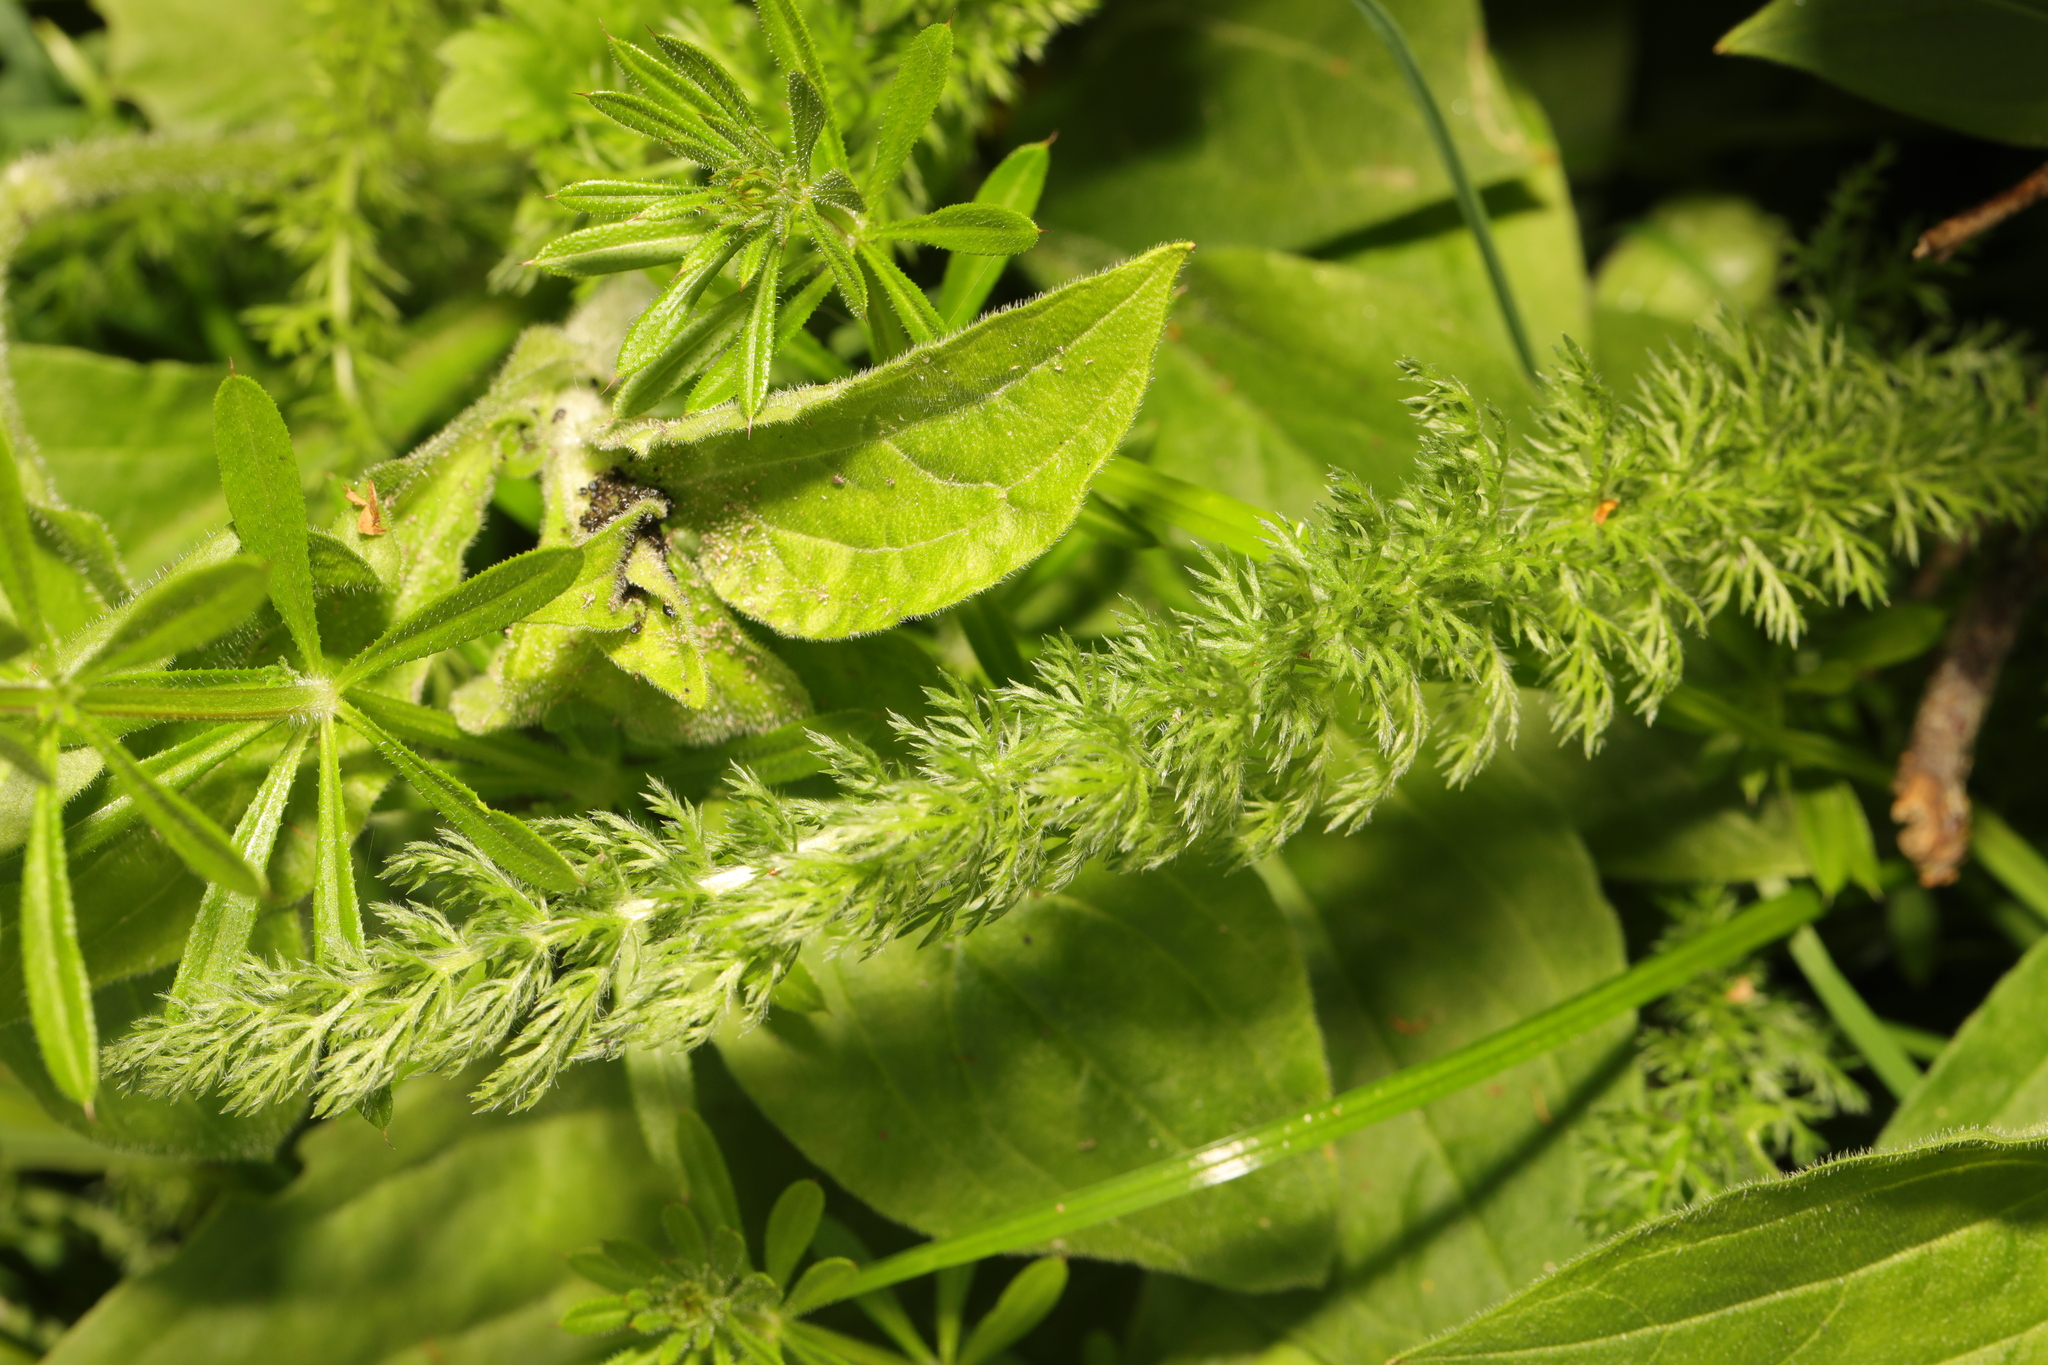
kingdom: Plantae
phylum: Tracheophyta
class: Magnoliopsida
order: Asterales
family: Asteraceae
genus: Achillea
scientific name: Achillea millefolium
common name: Yarrow
